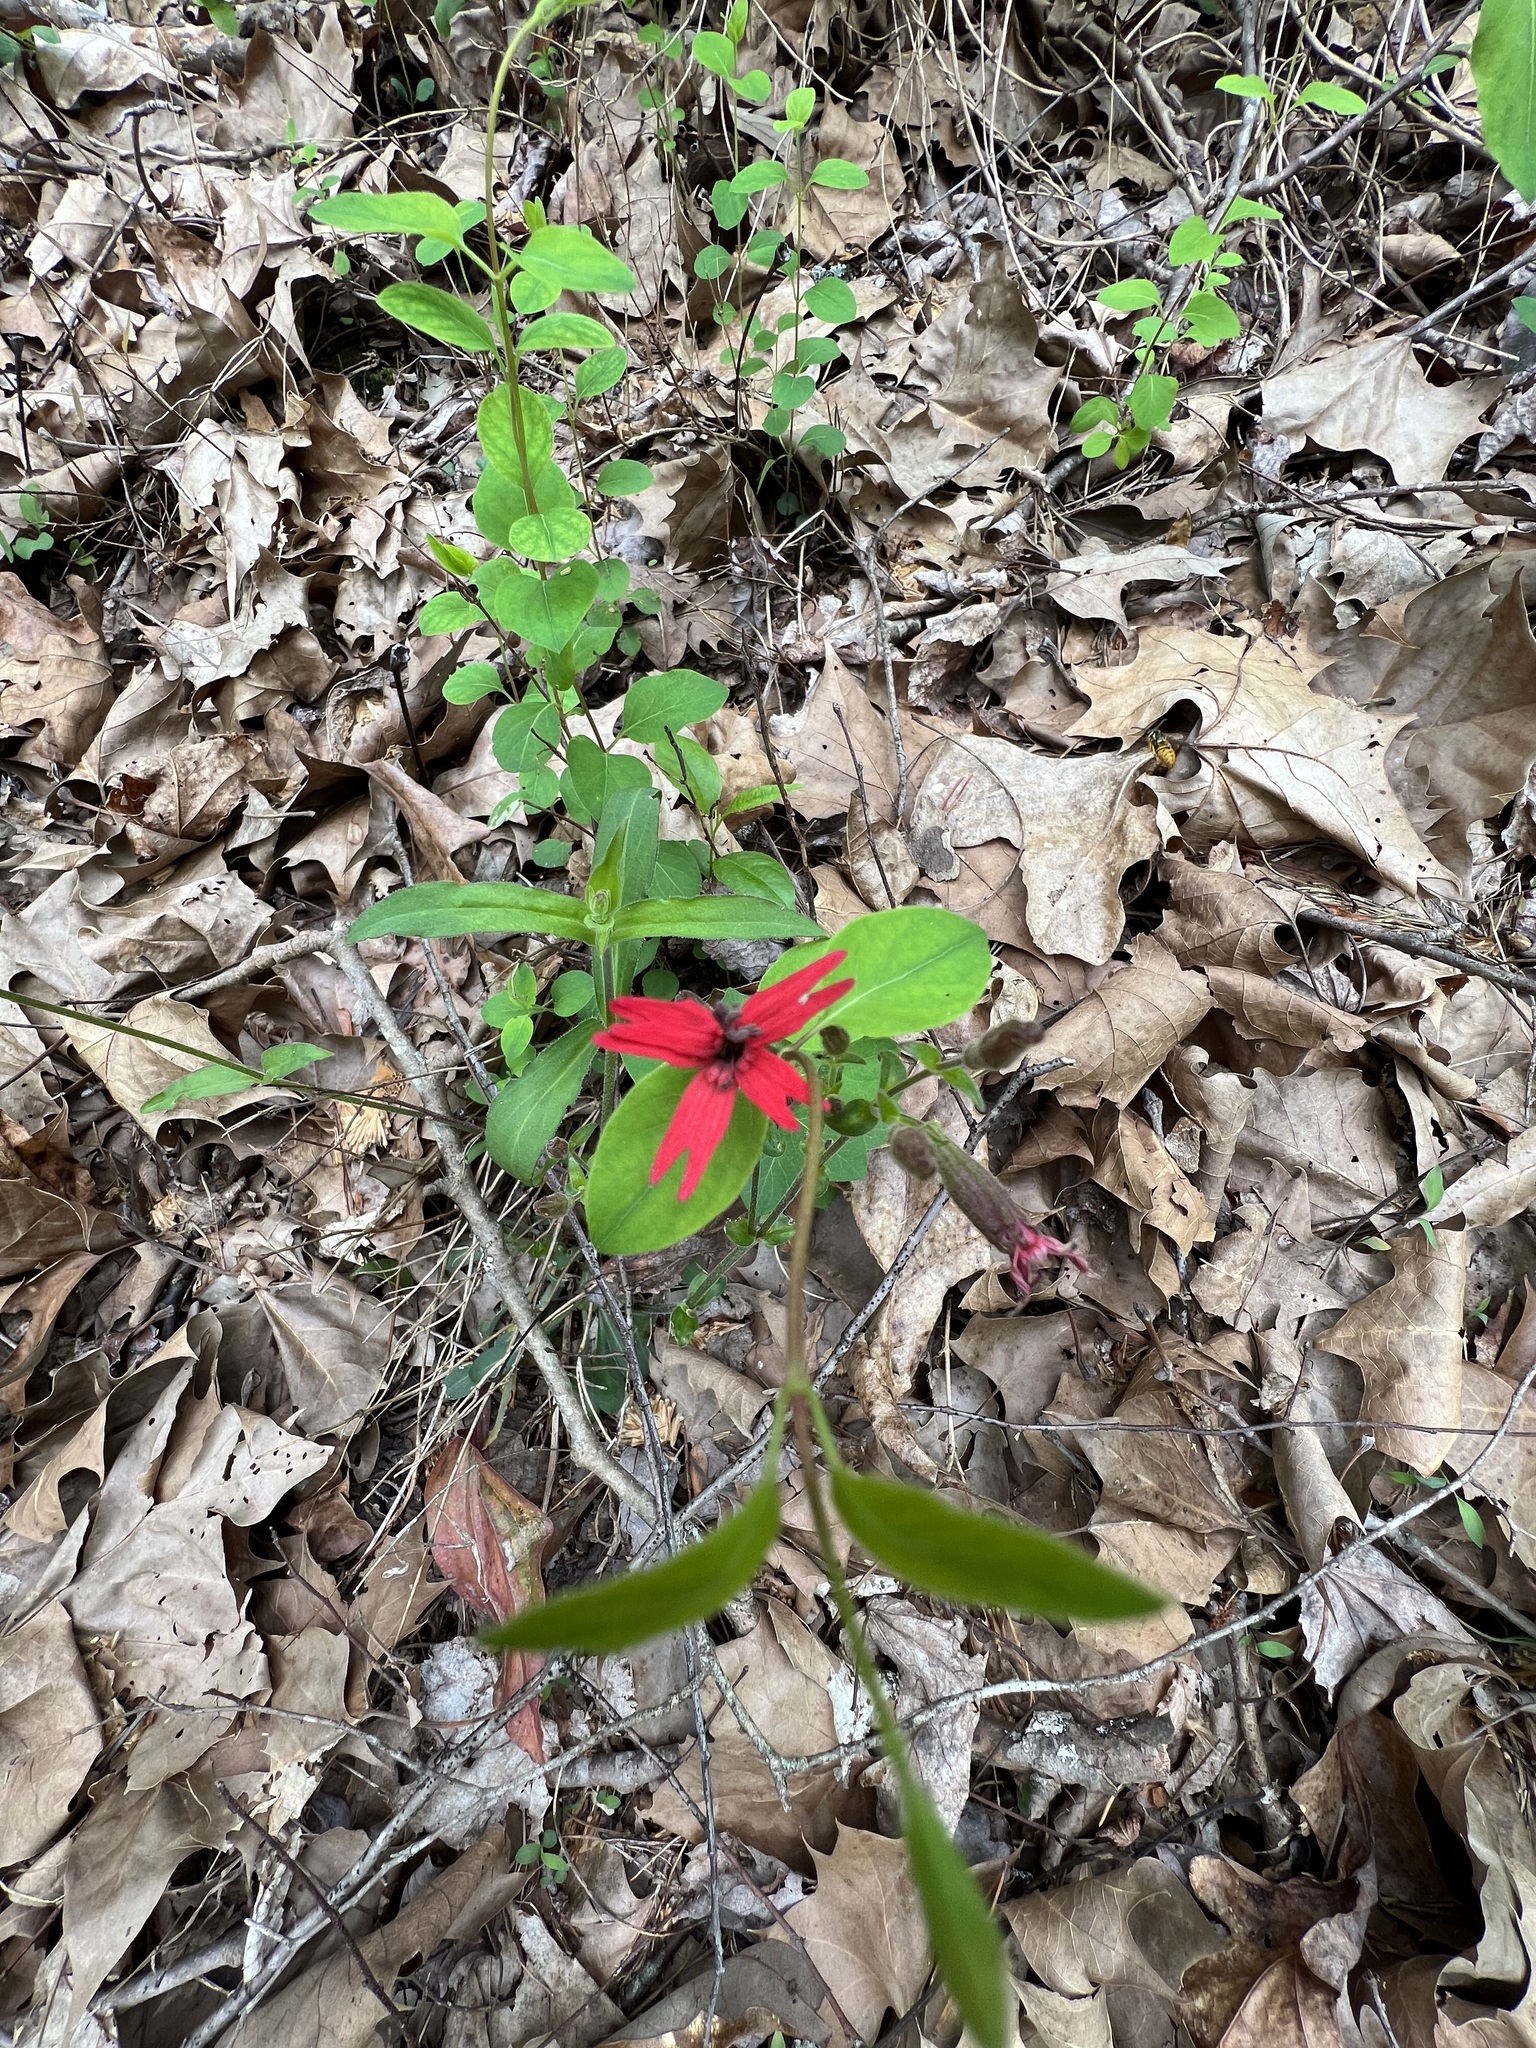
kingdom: Plantae
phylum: Tracheophyta
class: Magnoliopsida
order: Caryophyllales
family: Caryophyllaceae
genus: Silene
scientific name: Silene virginica
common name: Fire-pink
